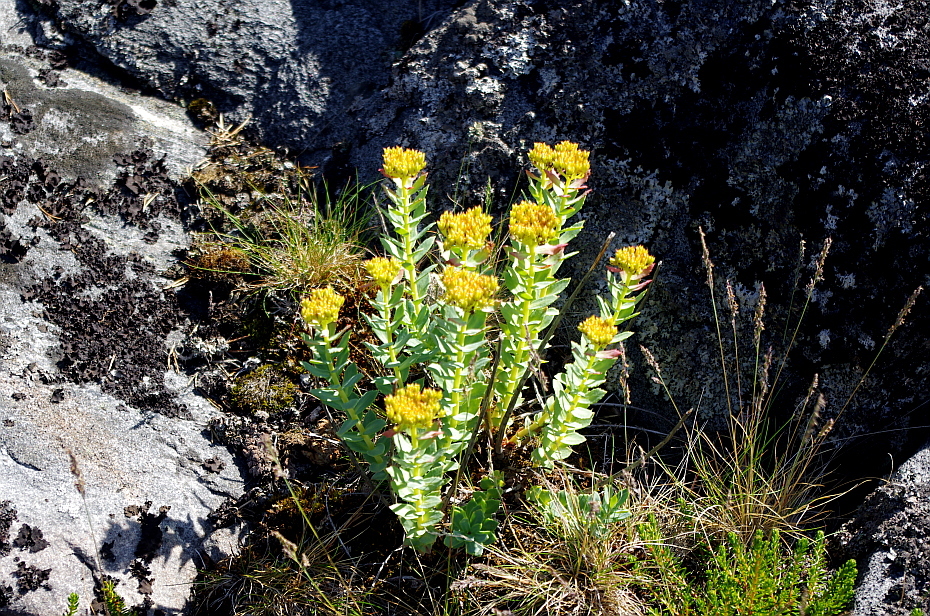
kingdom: Plantae
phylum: Tracheophyta
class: Magnoliopsida
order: Saxifragales
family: Crassulaceae
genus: Rhodiola
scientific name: Rhodiola rosea
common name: Roseroot
